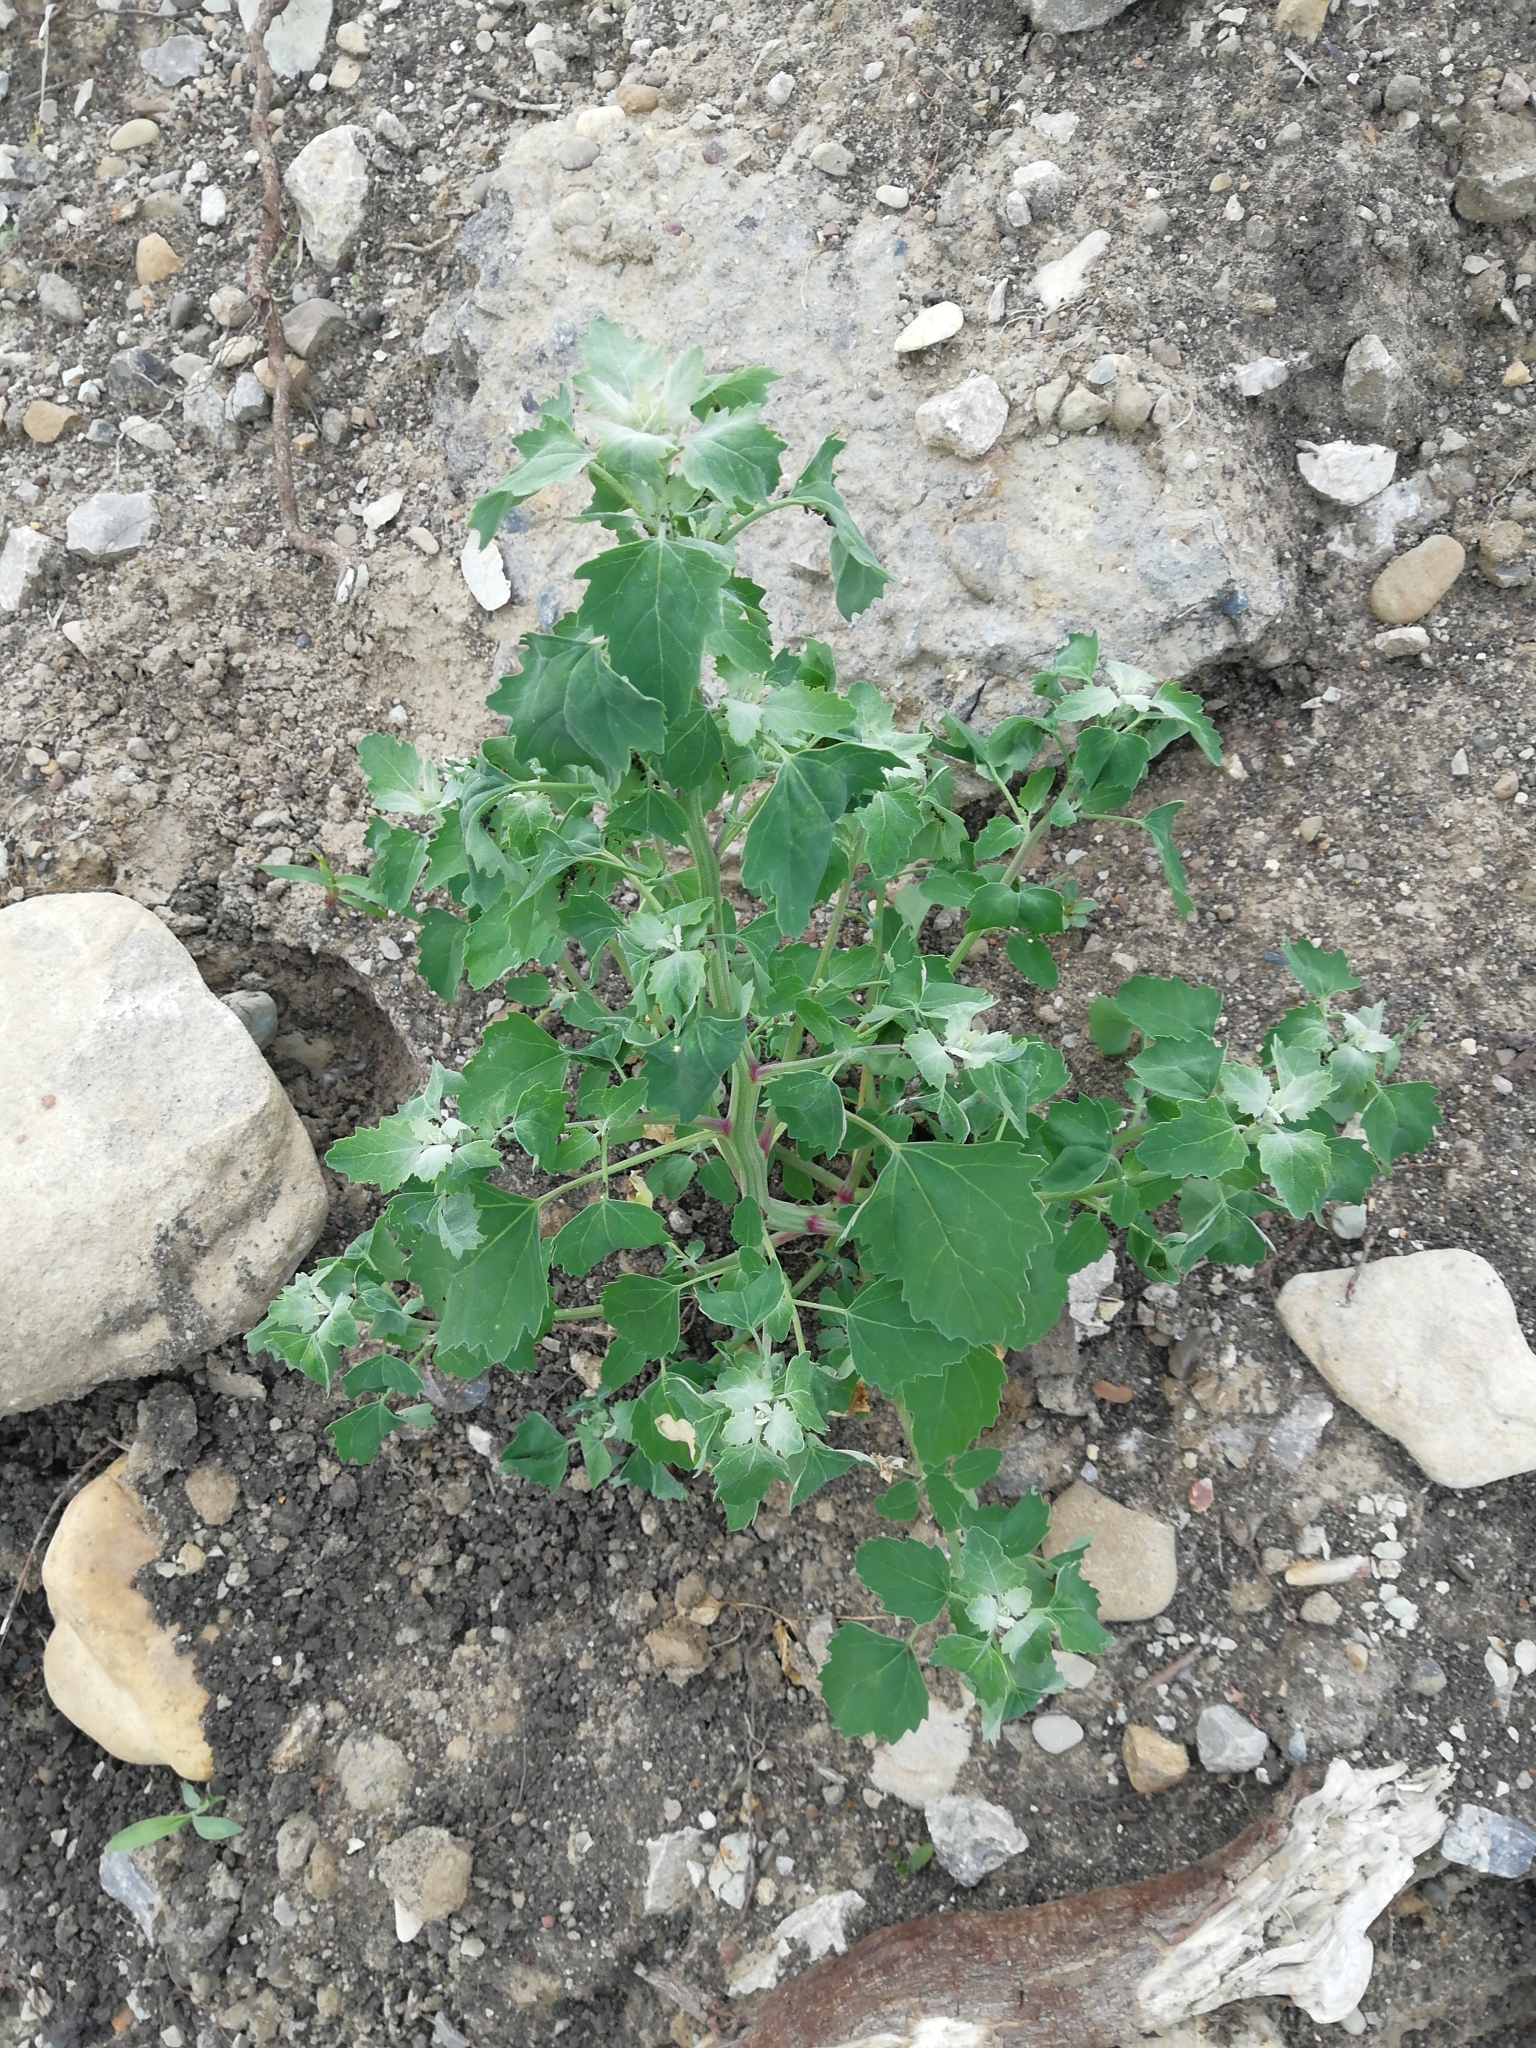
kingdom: Plantae
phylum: Tracheophyta
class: Magnoliopsida
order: Caryophyllales
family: Amaranthaceae
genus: Chenopodium
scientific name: Chenopodium album
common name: Fat-hen
